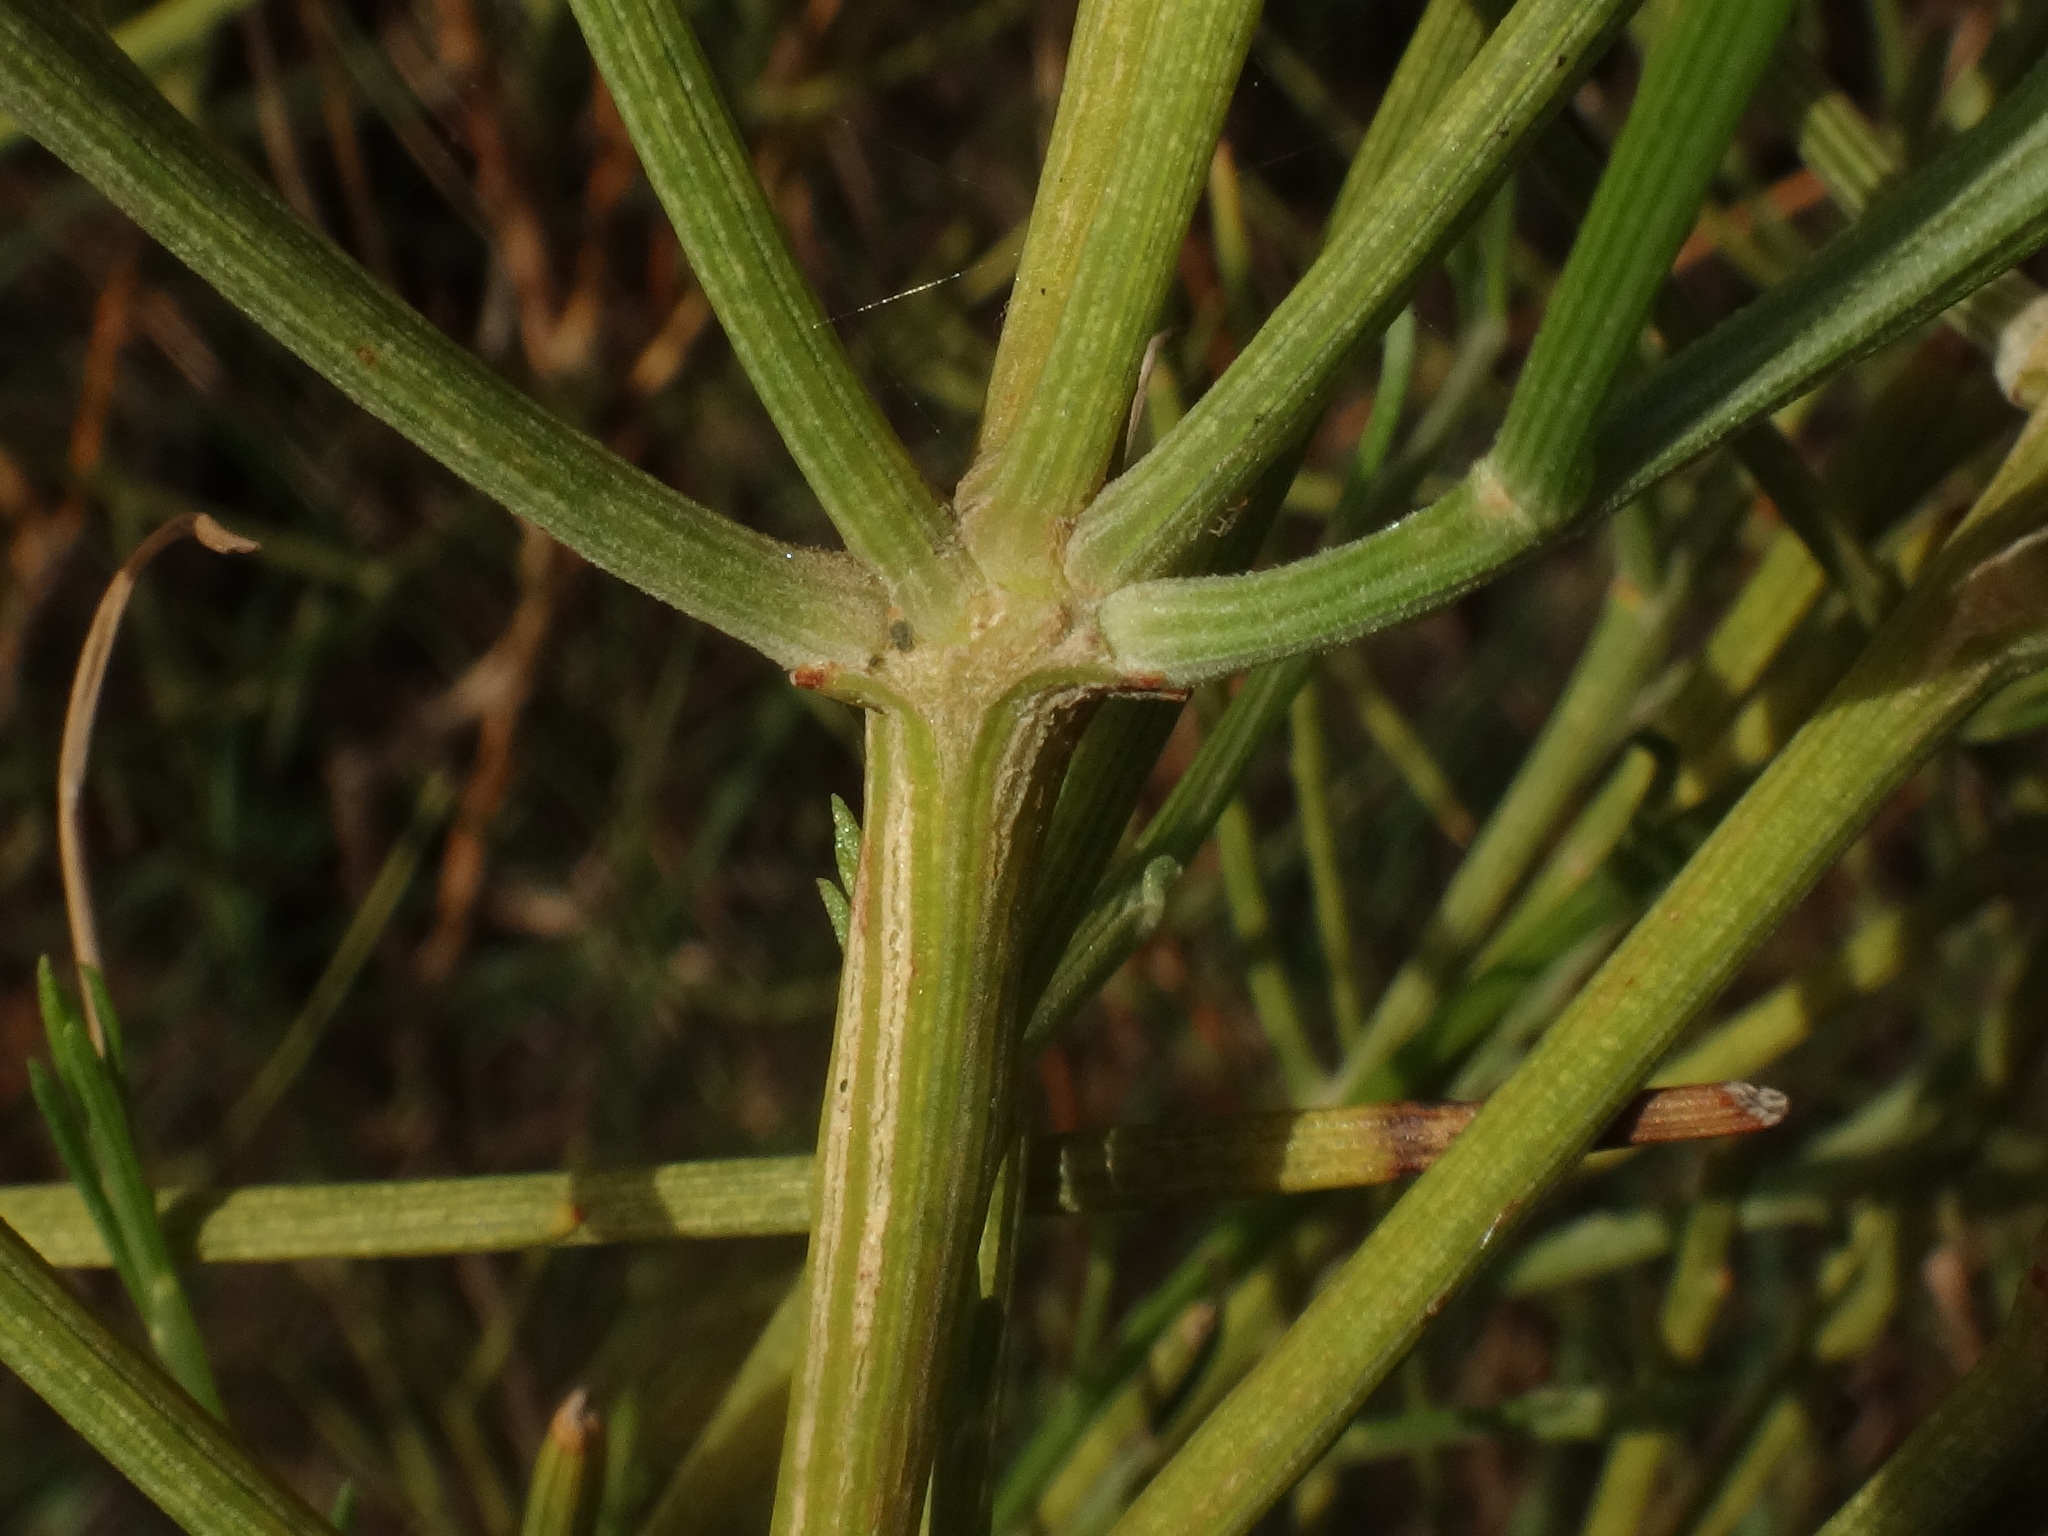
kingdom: Plantae
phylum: Tracheophyta
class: Magnoliopsida
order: Fabales
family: Fabaceae
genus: Retama
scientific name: Retama rhodorhizoides
